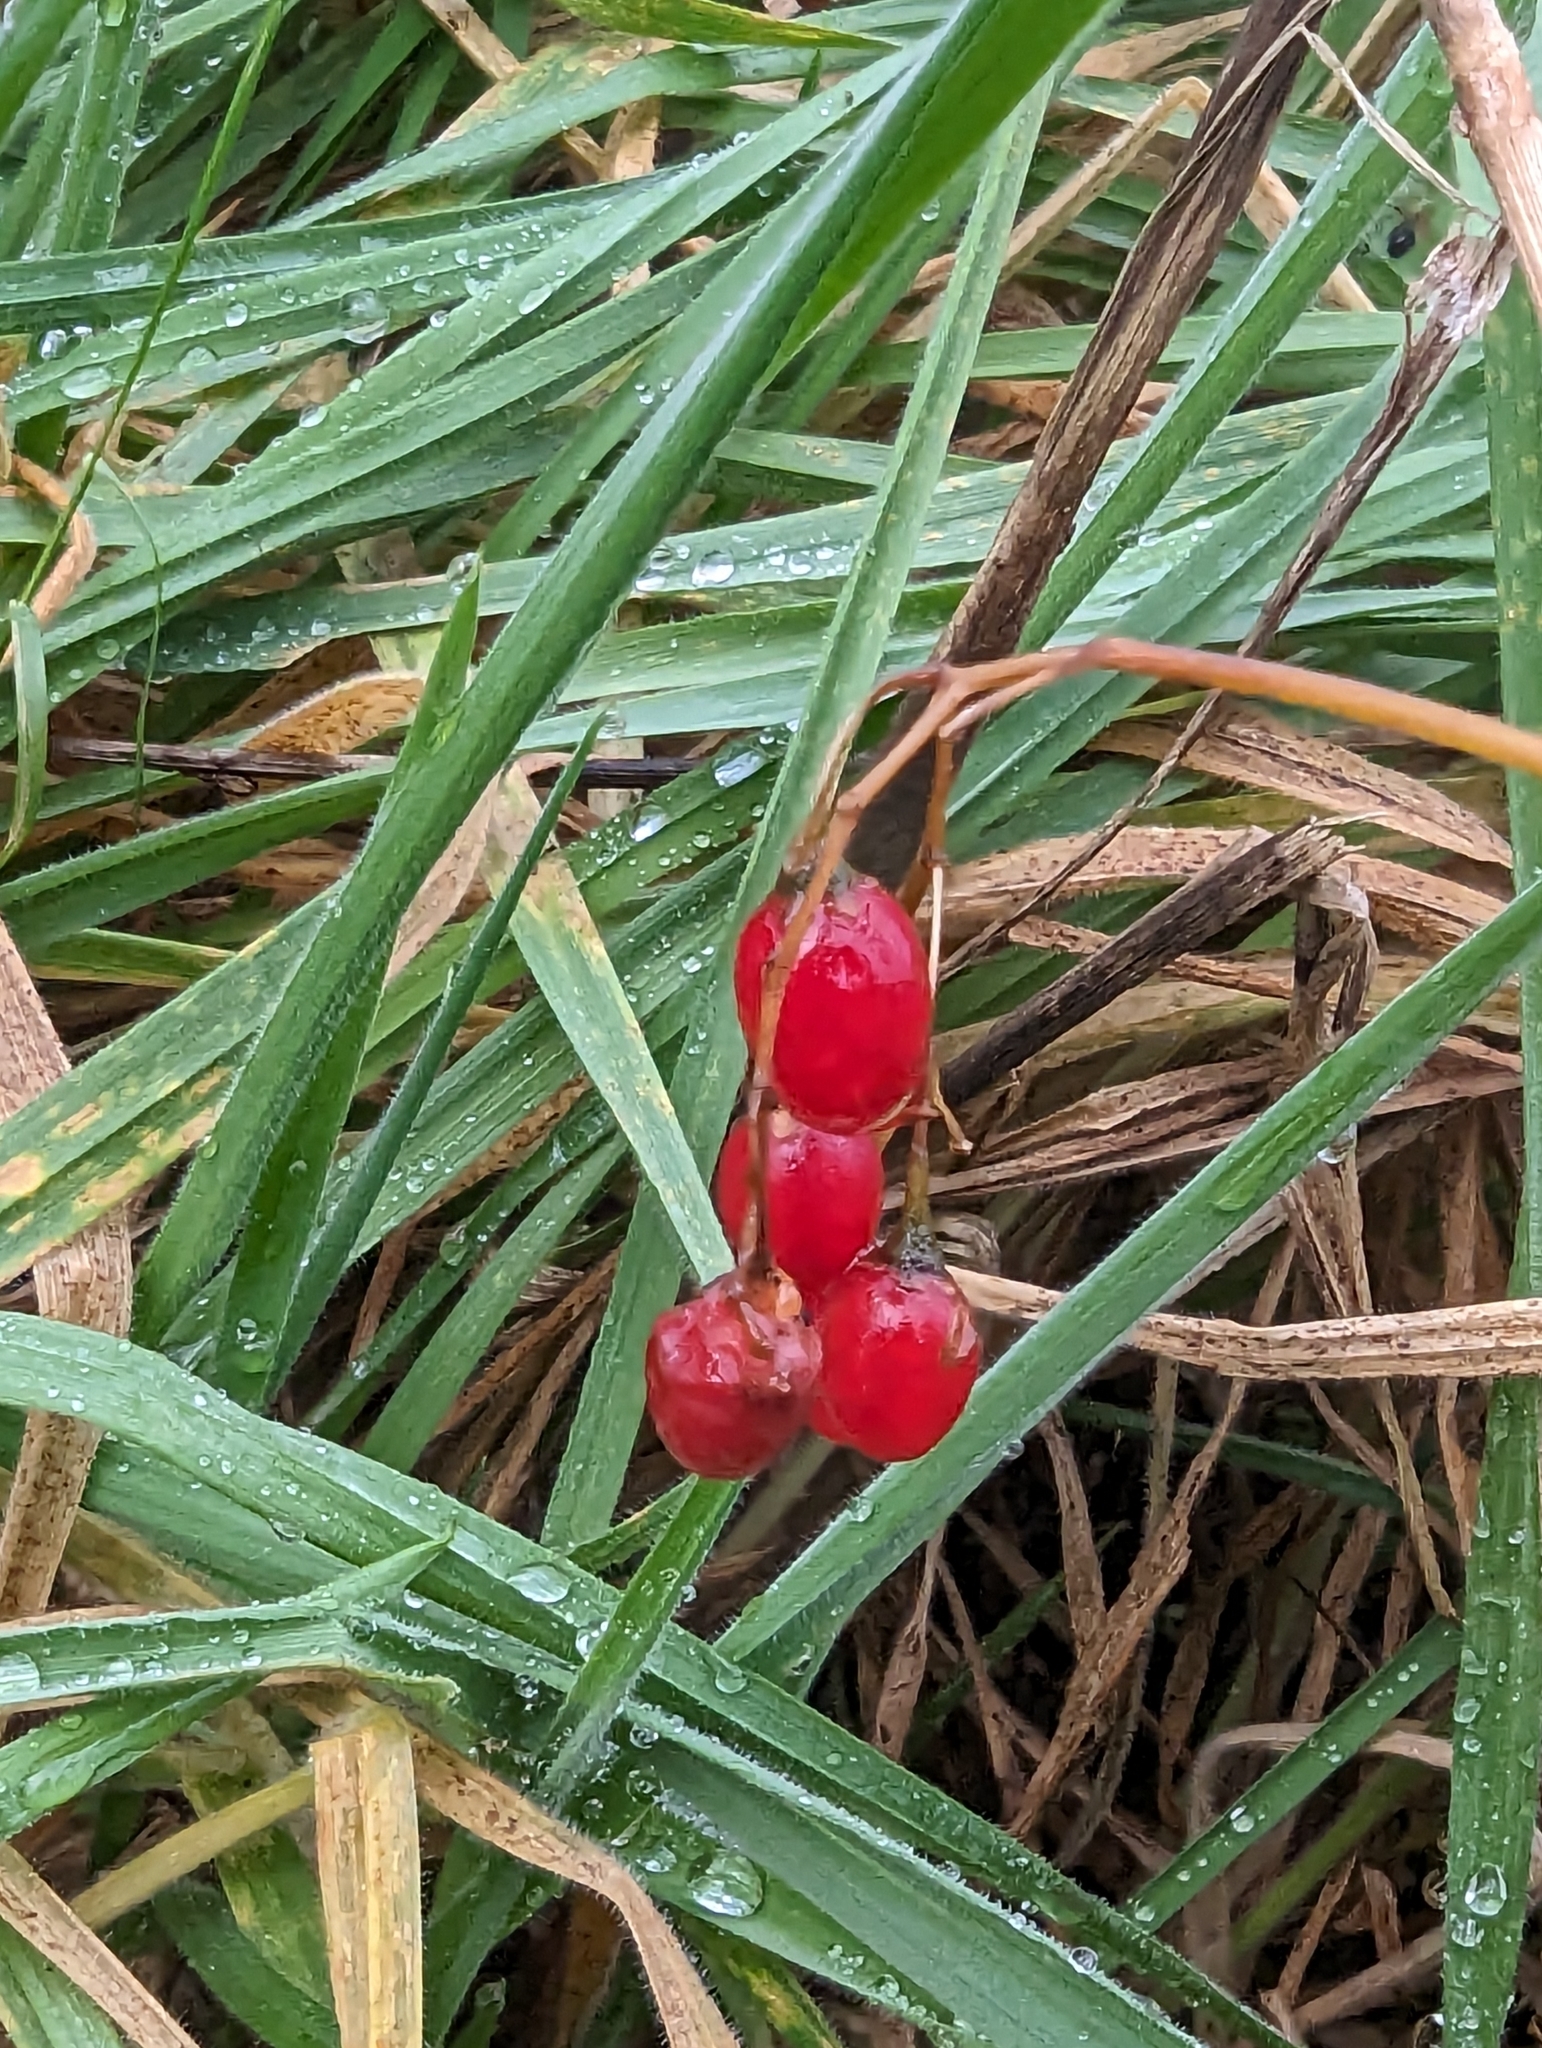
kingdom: Plantae
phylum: Tracheophyta
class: Magnoliopsida
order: Solanales
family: Solanaceae
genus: Solanum
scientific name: Solanum dulcamara
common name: Climbing nightshade
